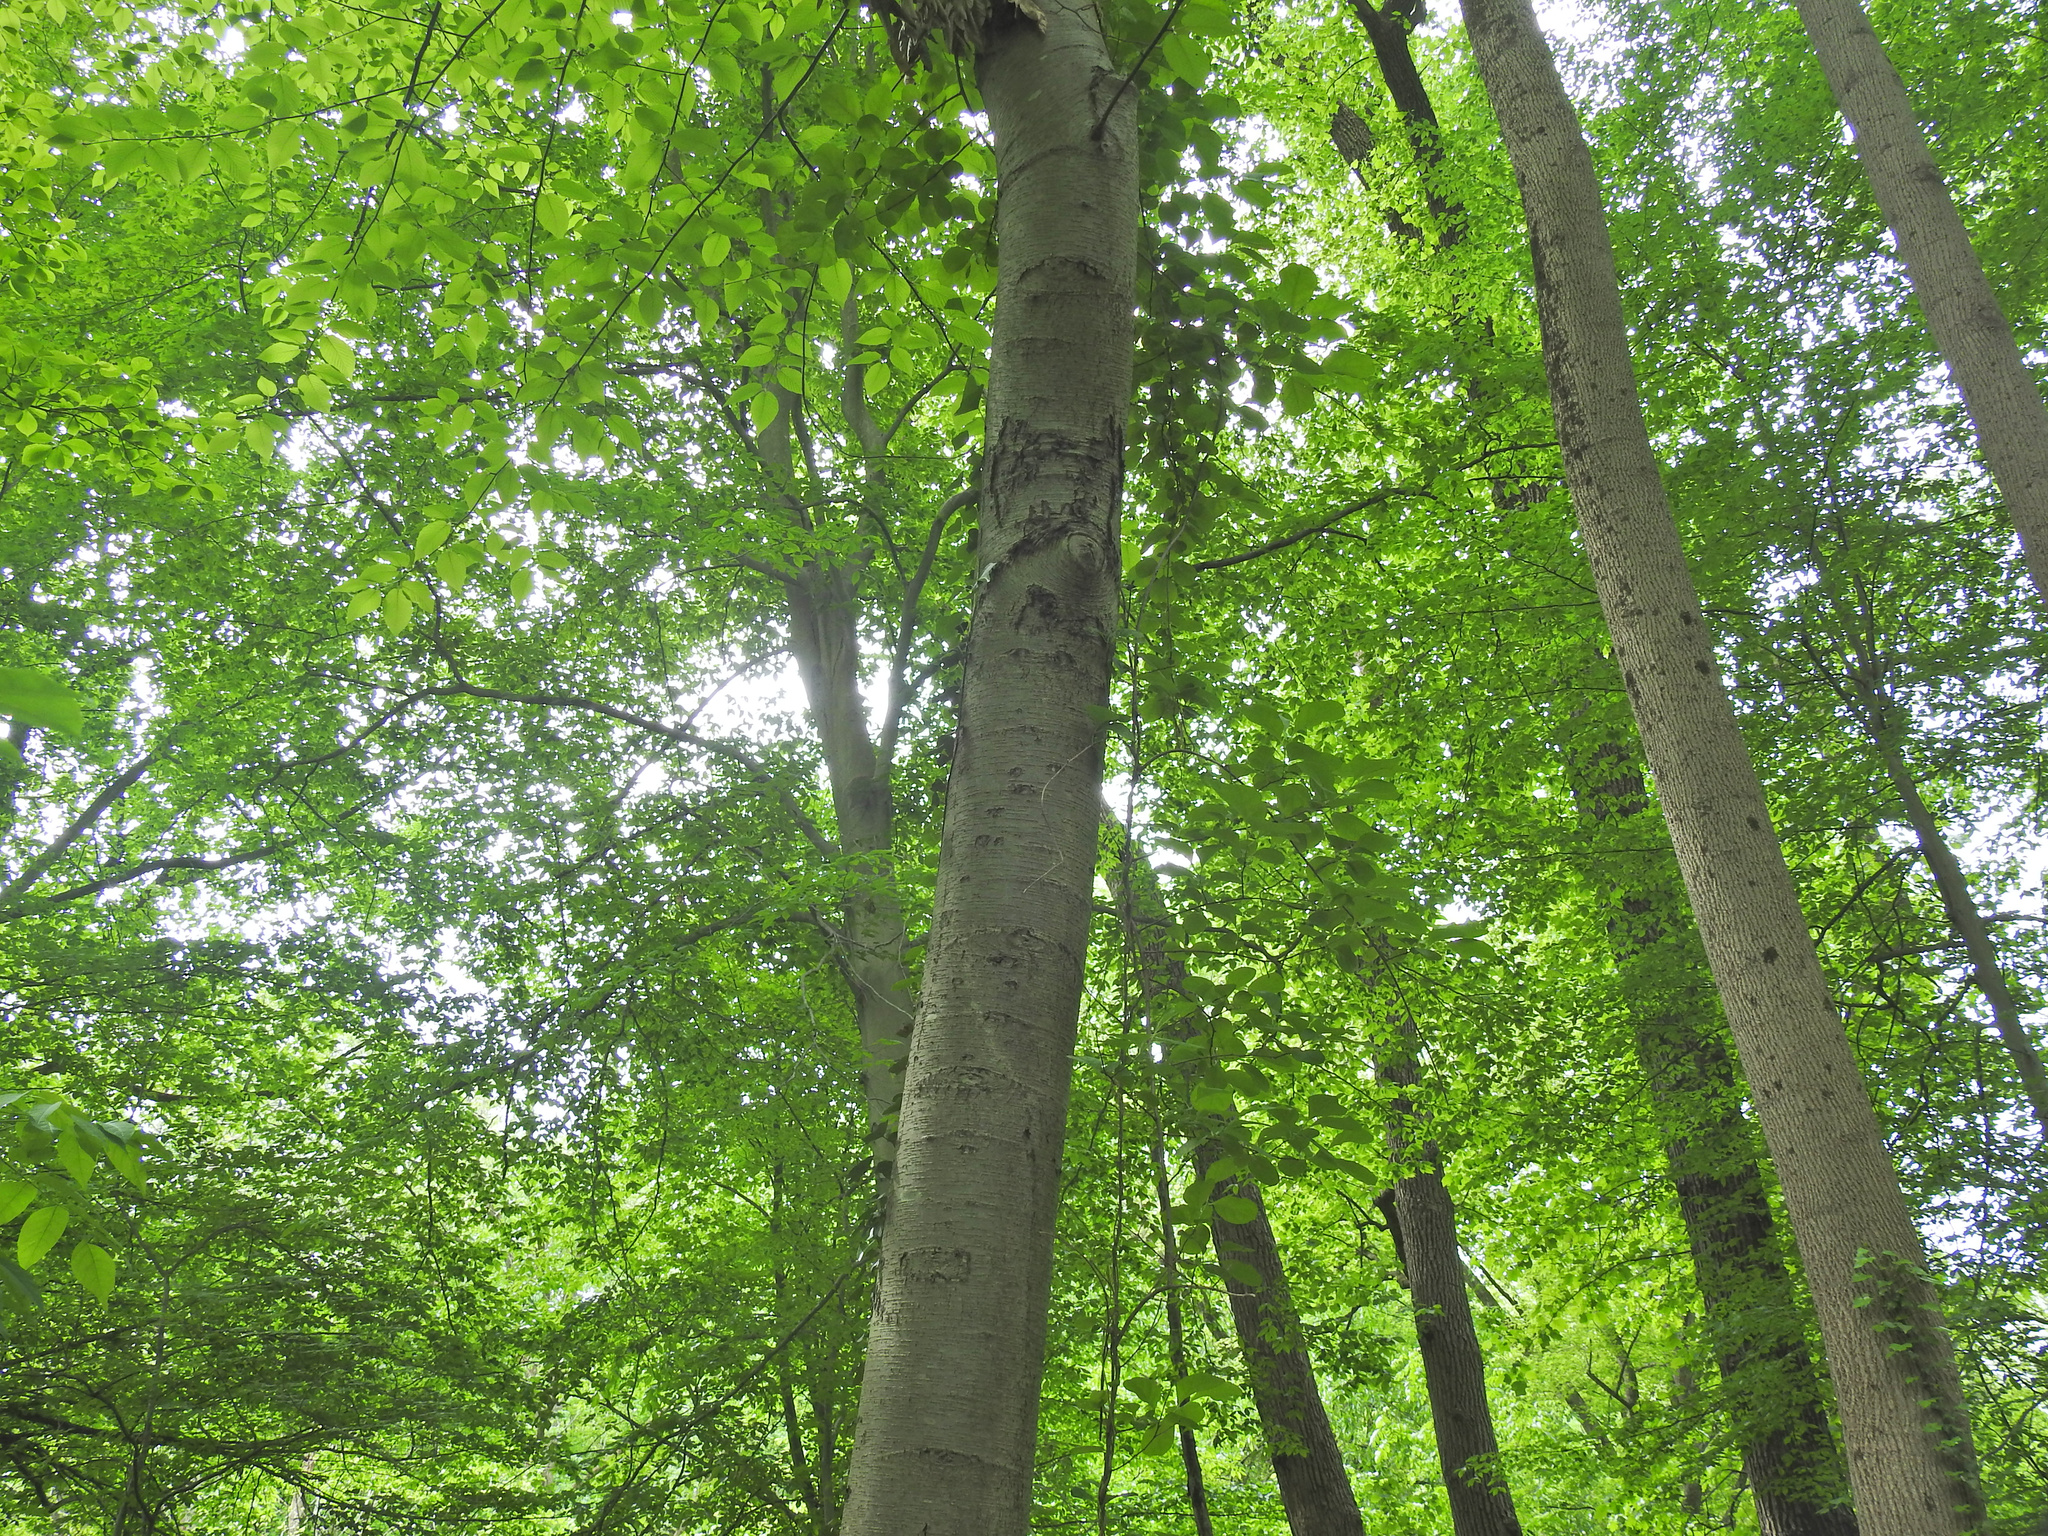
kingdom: Plantae
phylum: Tracheophyta
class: Magnoliopsida
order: Fagales
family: Betulaceae
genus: Betula
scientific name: Betula lenta
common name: Black birch
